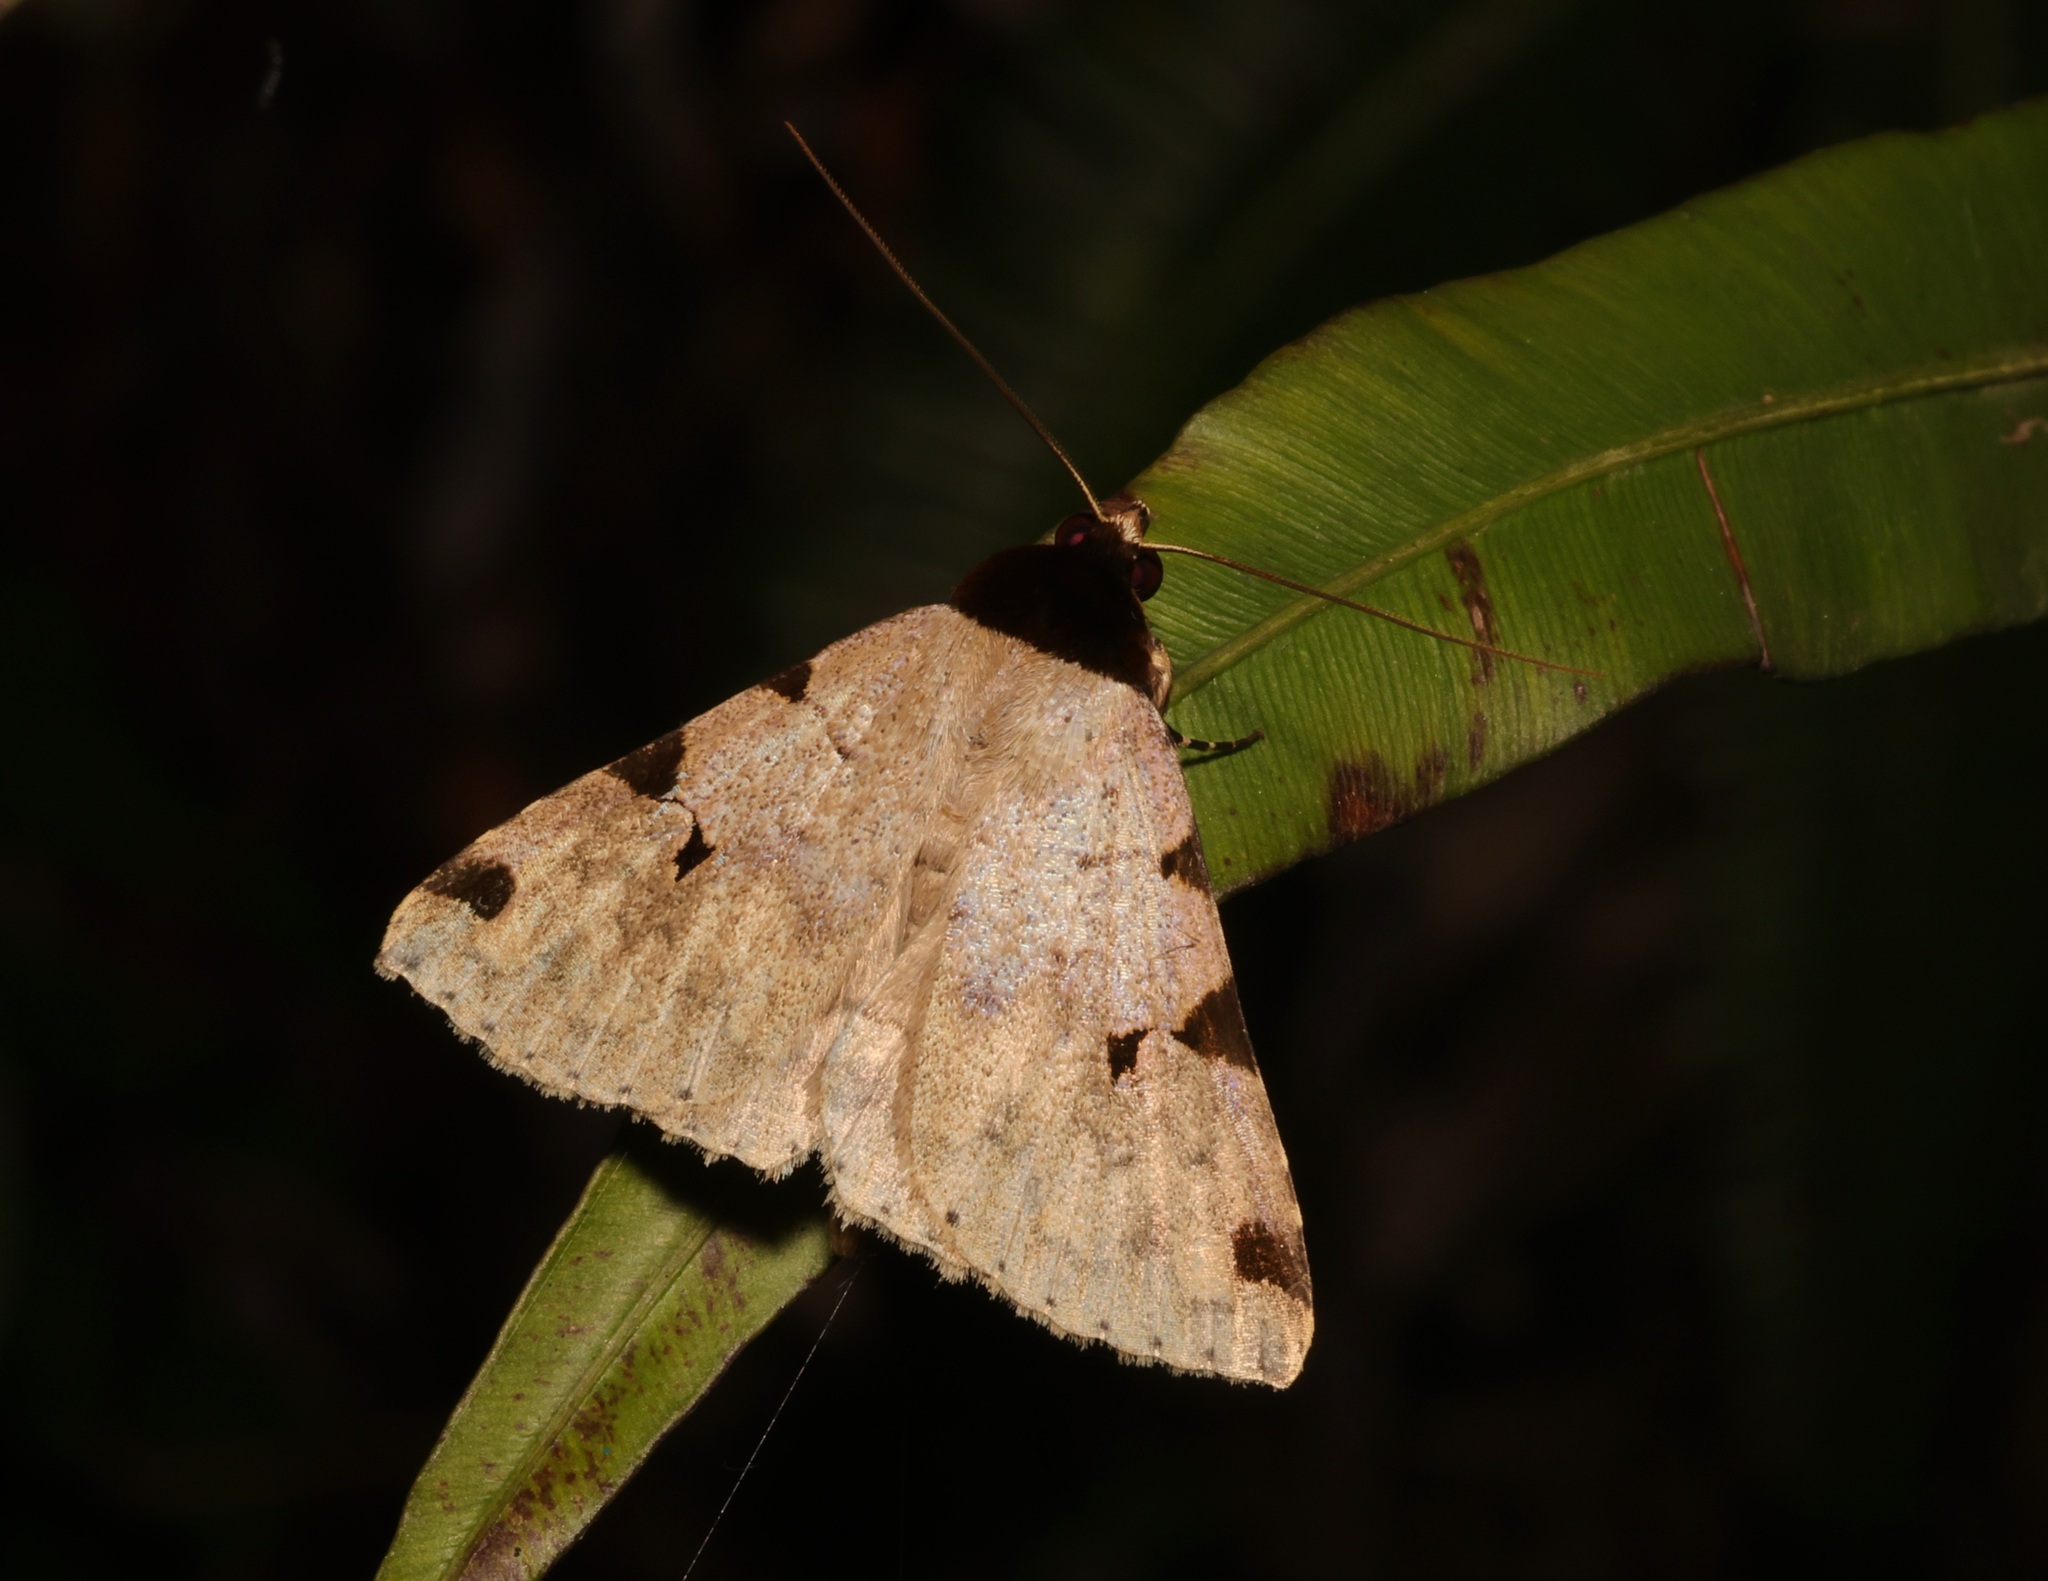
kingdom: Animalia
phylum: Arthropoda
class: Insecta
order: Lepidoptera
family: Erebidae
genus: Rema
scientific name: Rema costimacula
